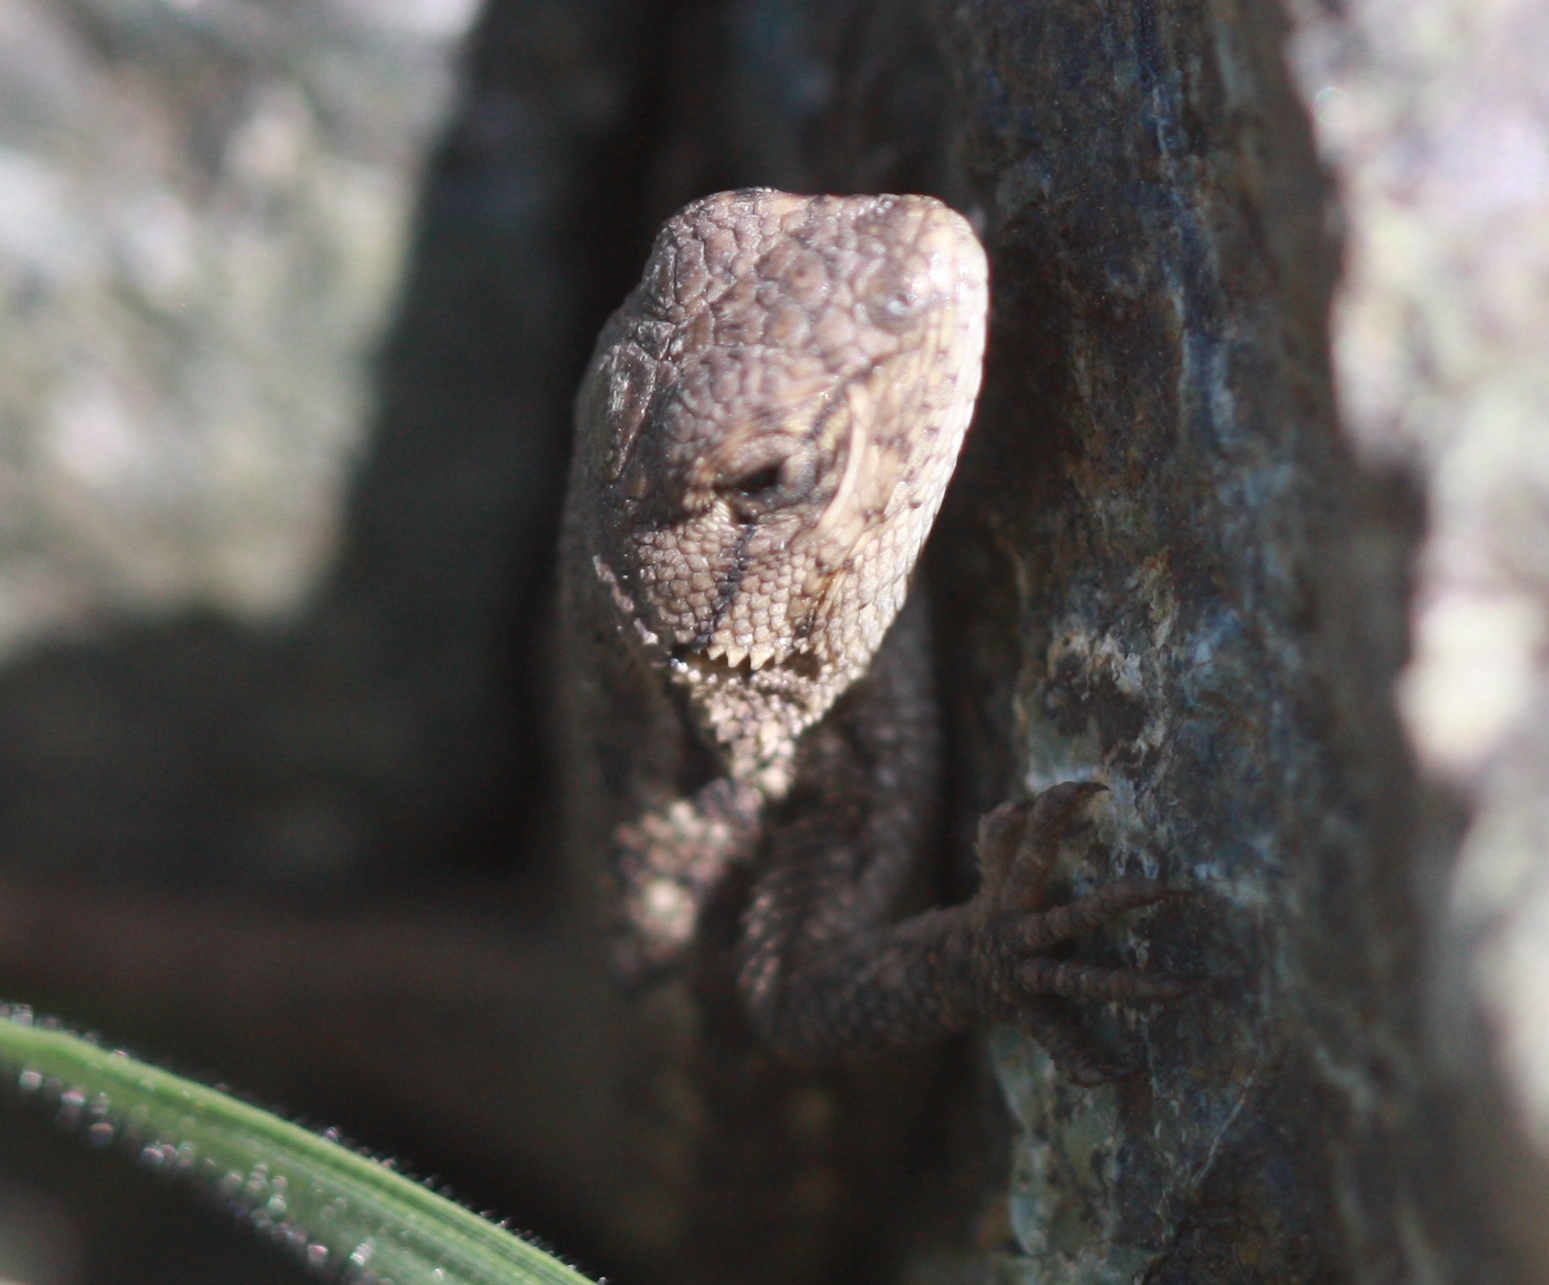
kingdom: Animalia
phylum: Chordata
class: Squamata
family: Phrynosomatidae
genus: Sceloporus
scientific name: Sceloporus occidentalis
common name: Western fence lizard
